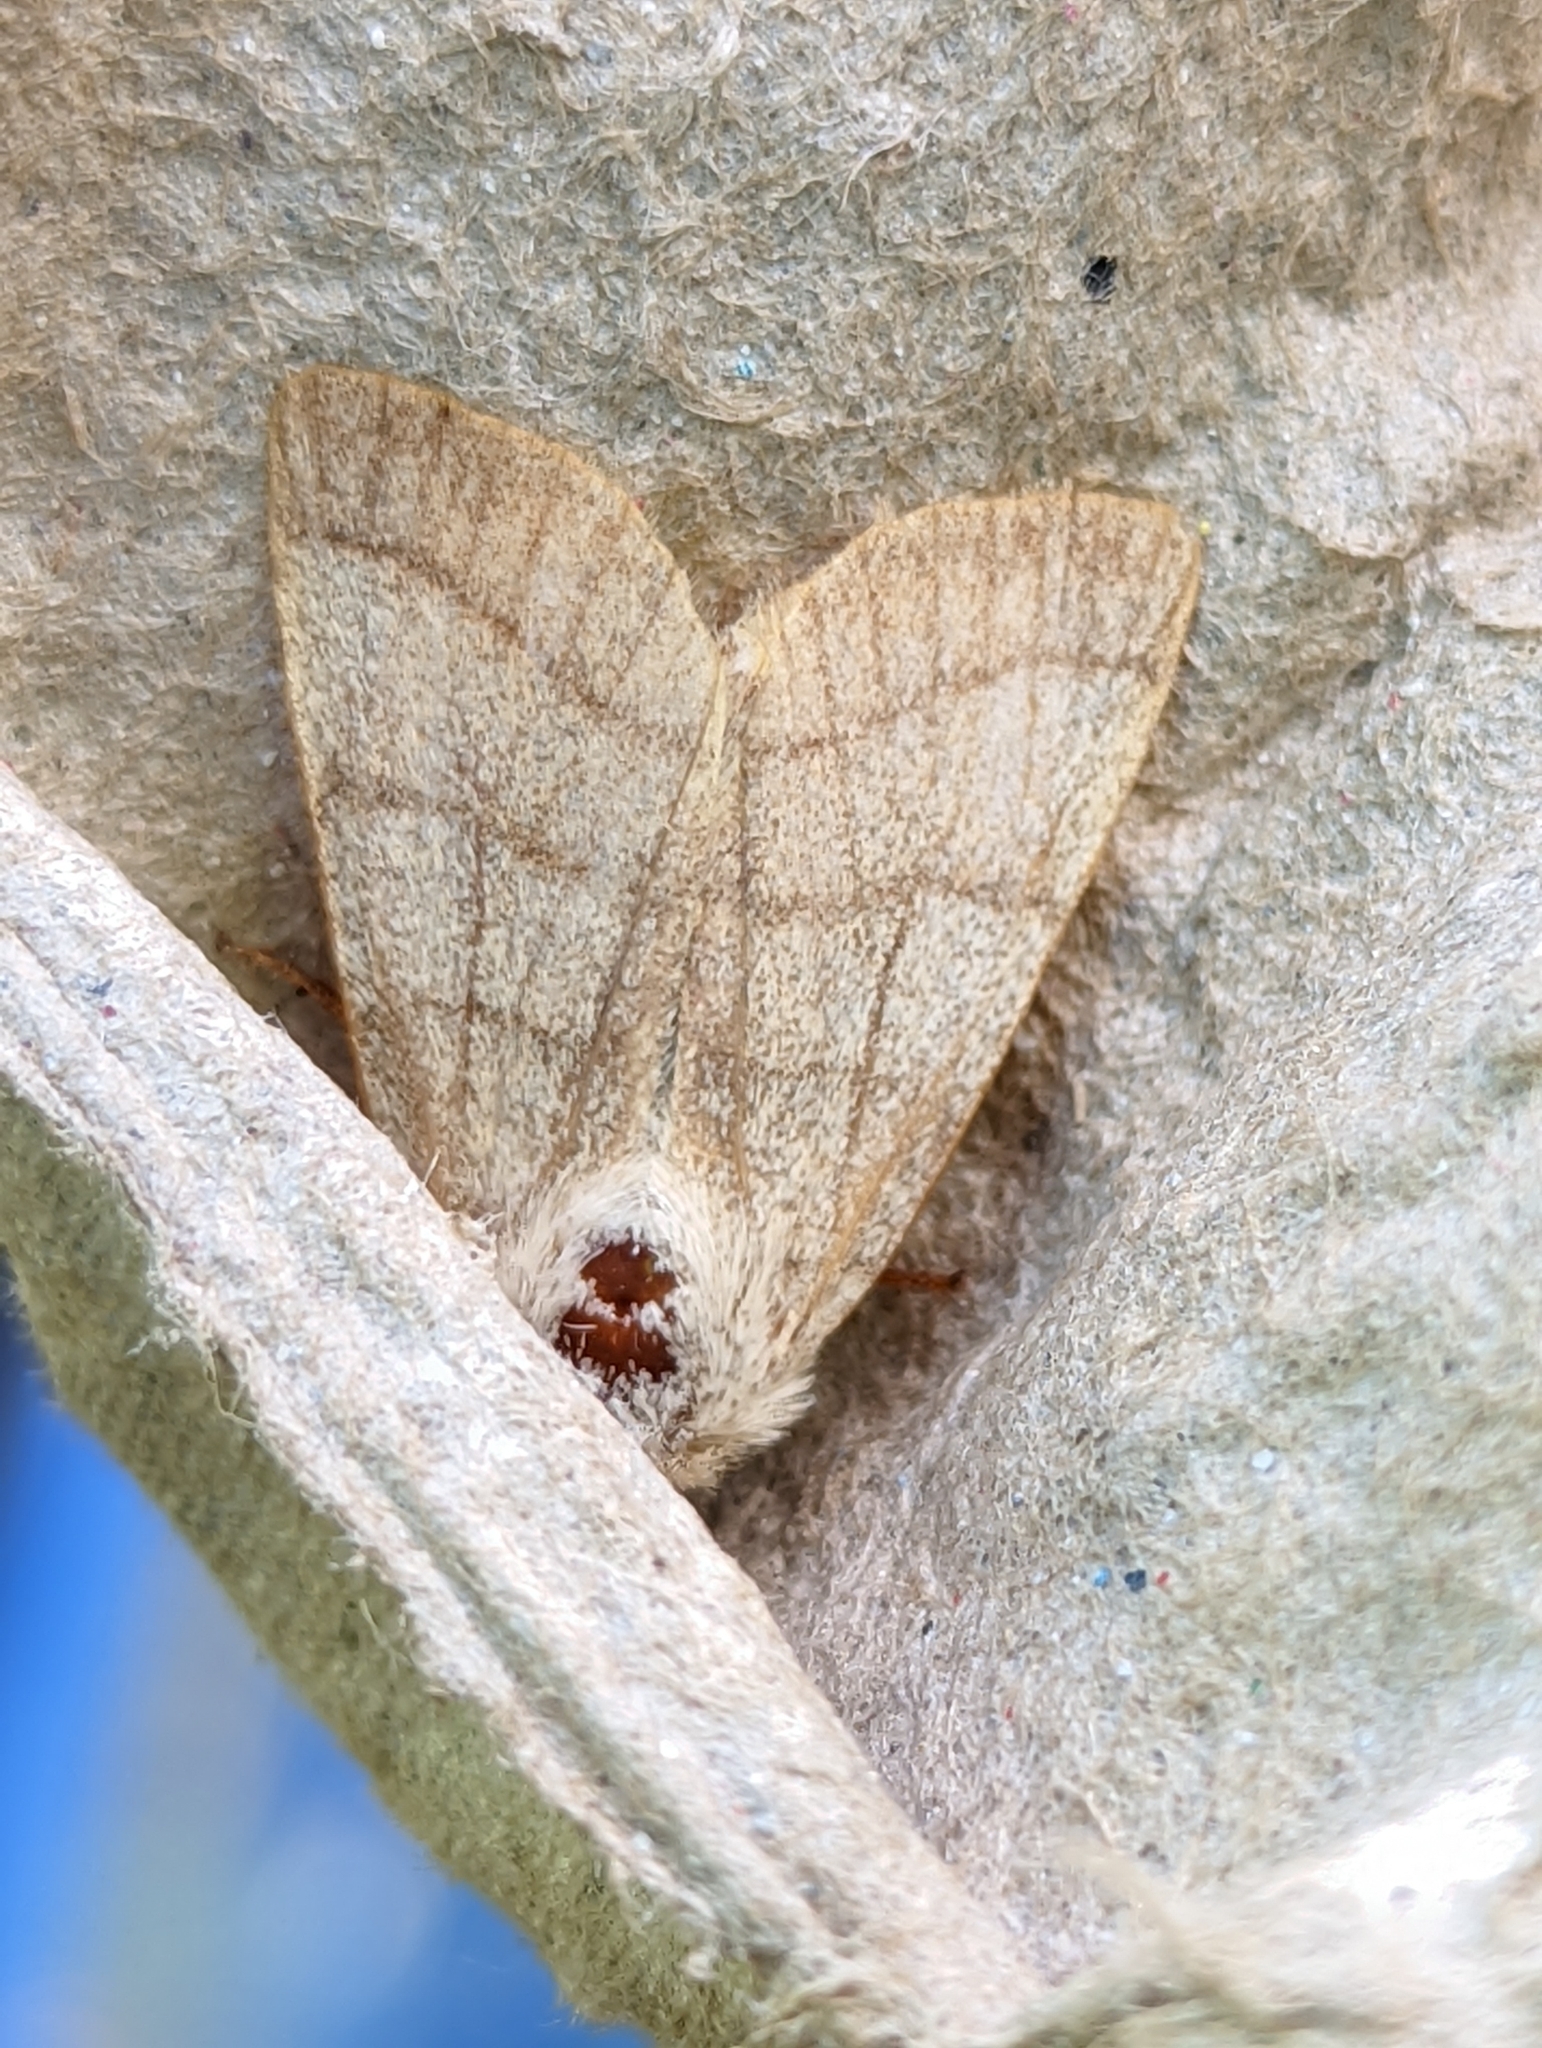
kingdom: Animalia
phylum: Arthropoda
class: Insecta
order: Lepidoptera
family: Noctuidae
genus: Charanyca
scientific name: Charanyca trigrammica
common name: Treble lines
